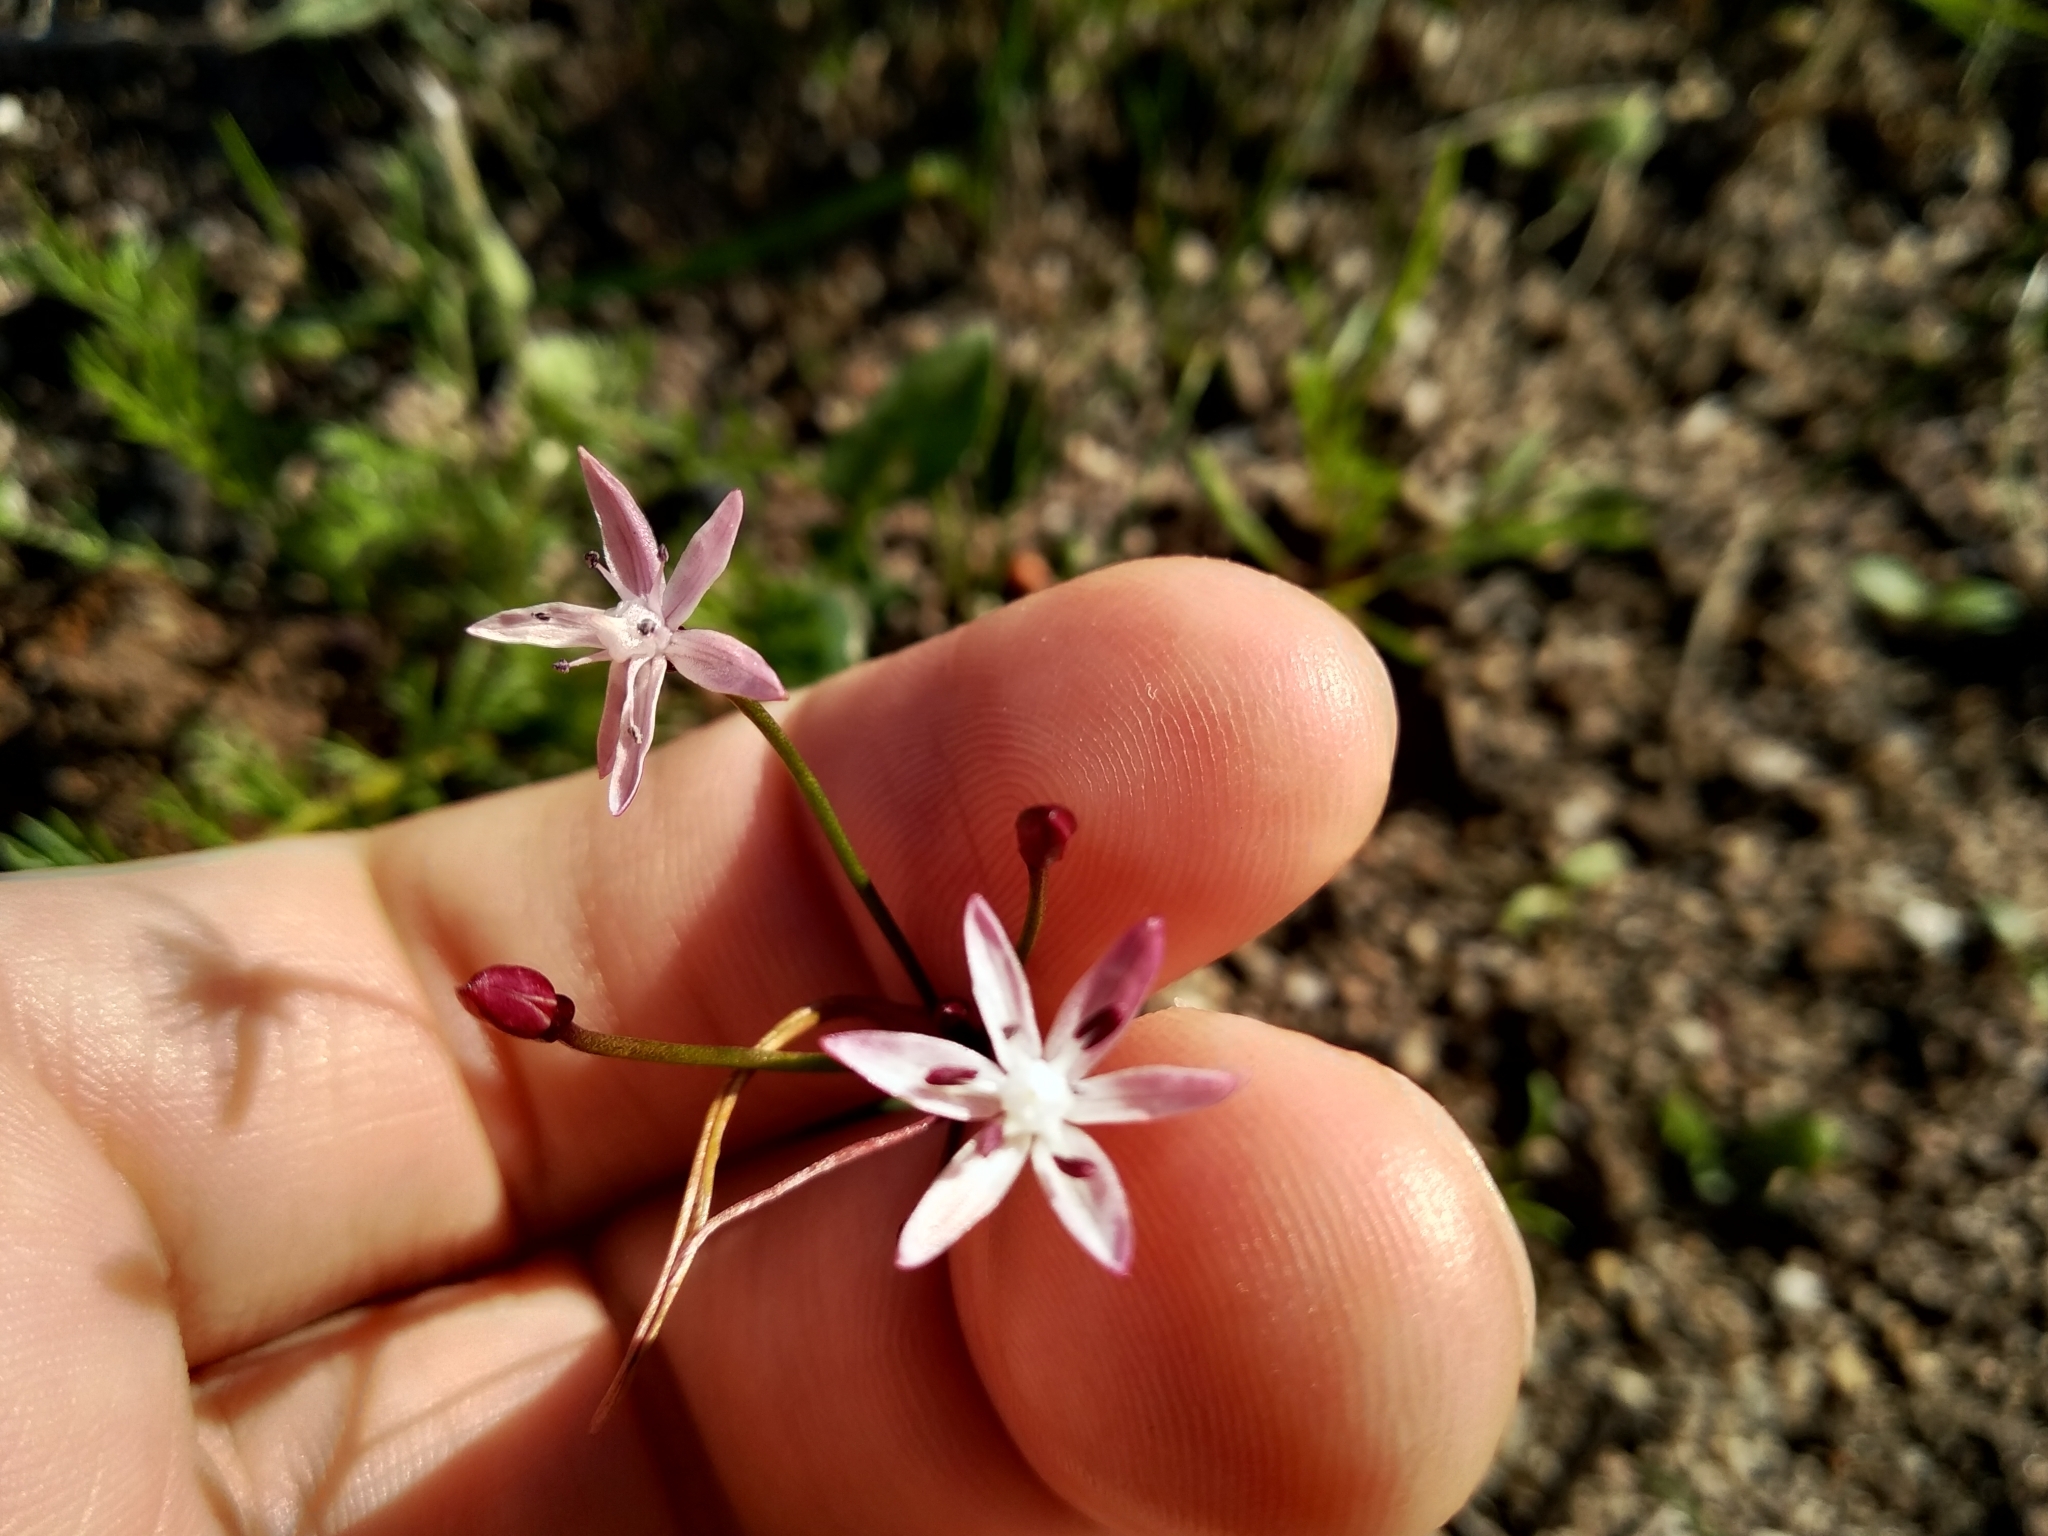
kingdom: Plantae
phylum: Tracheophyta
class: Liliopsida
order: Asparagales
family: Amaryllidaceae
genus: Strumaria
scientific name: Strumaria tenella
